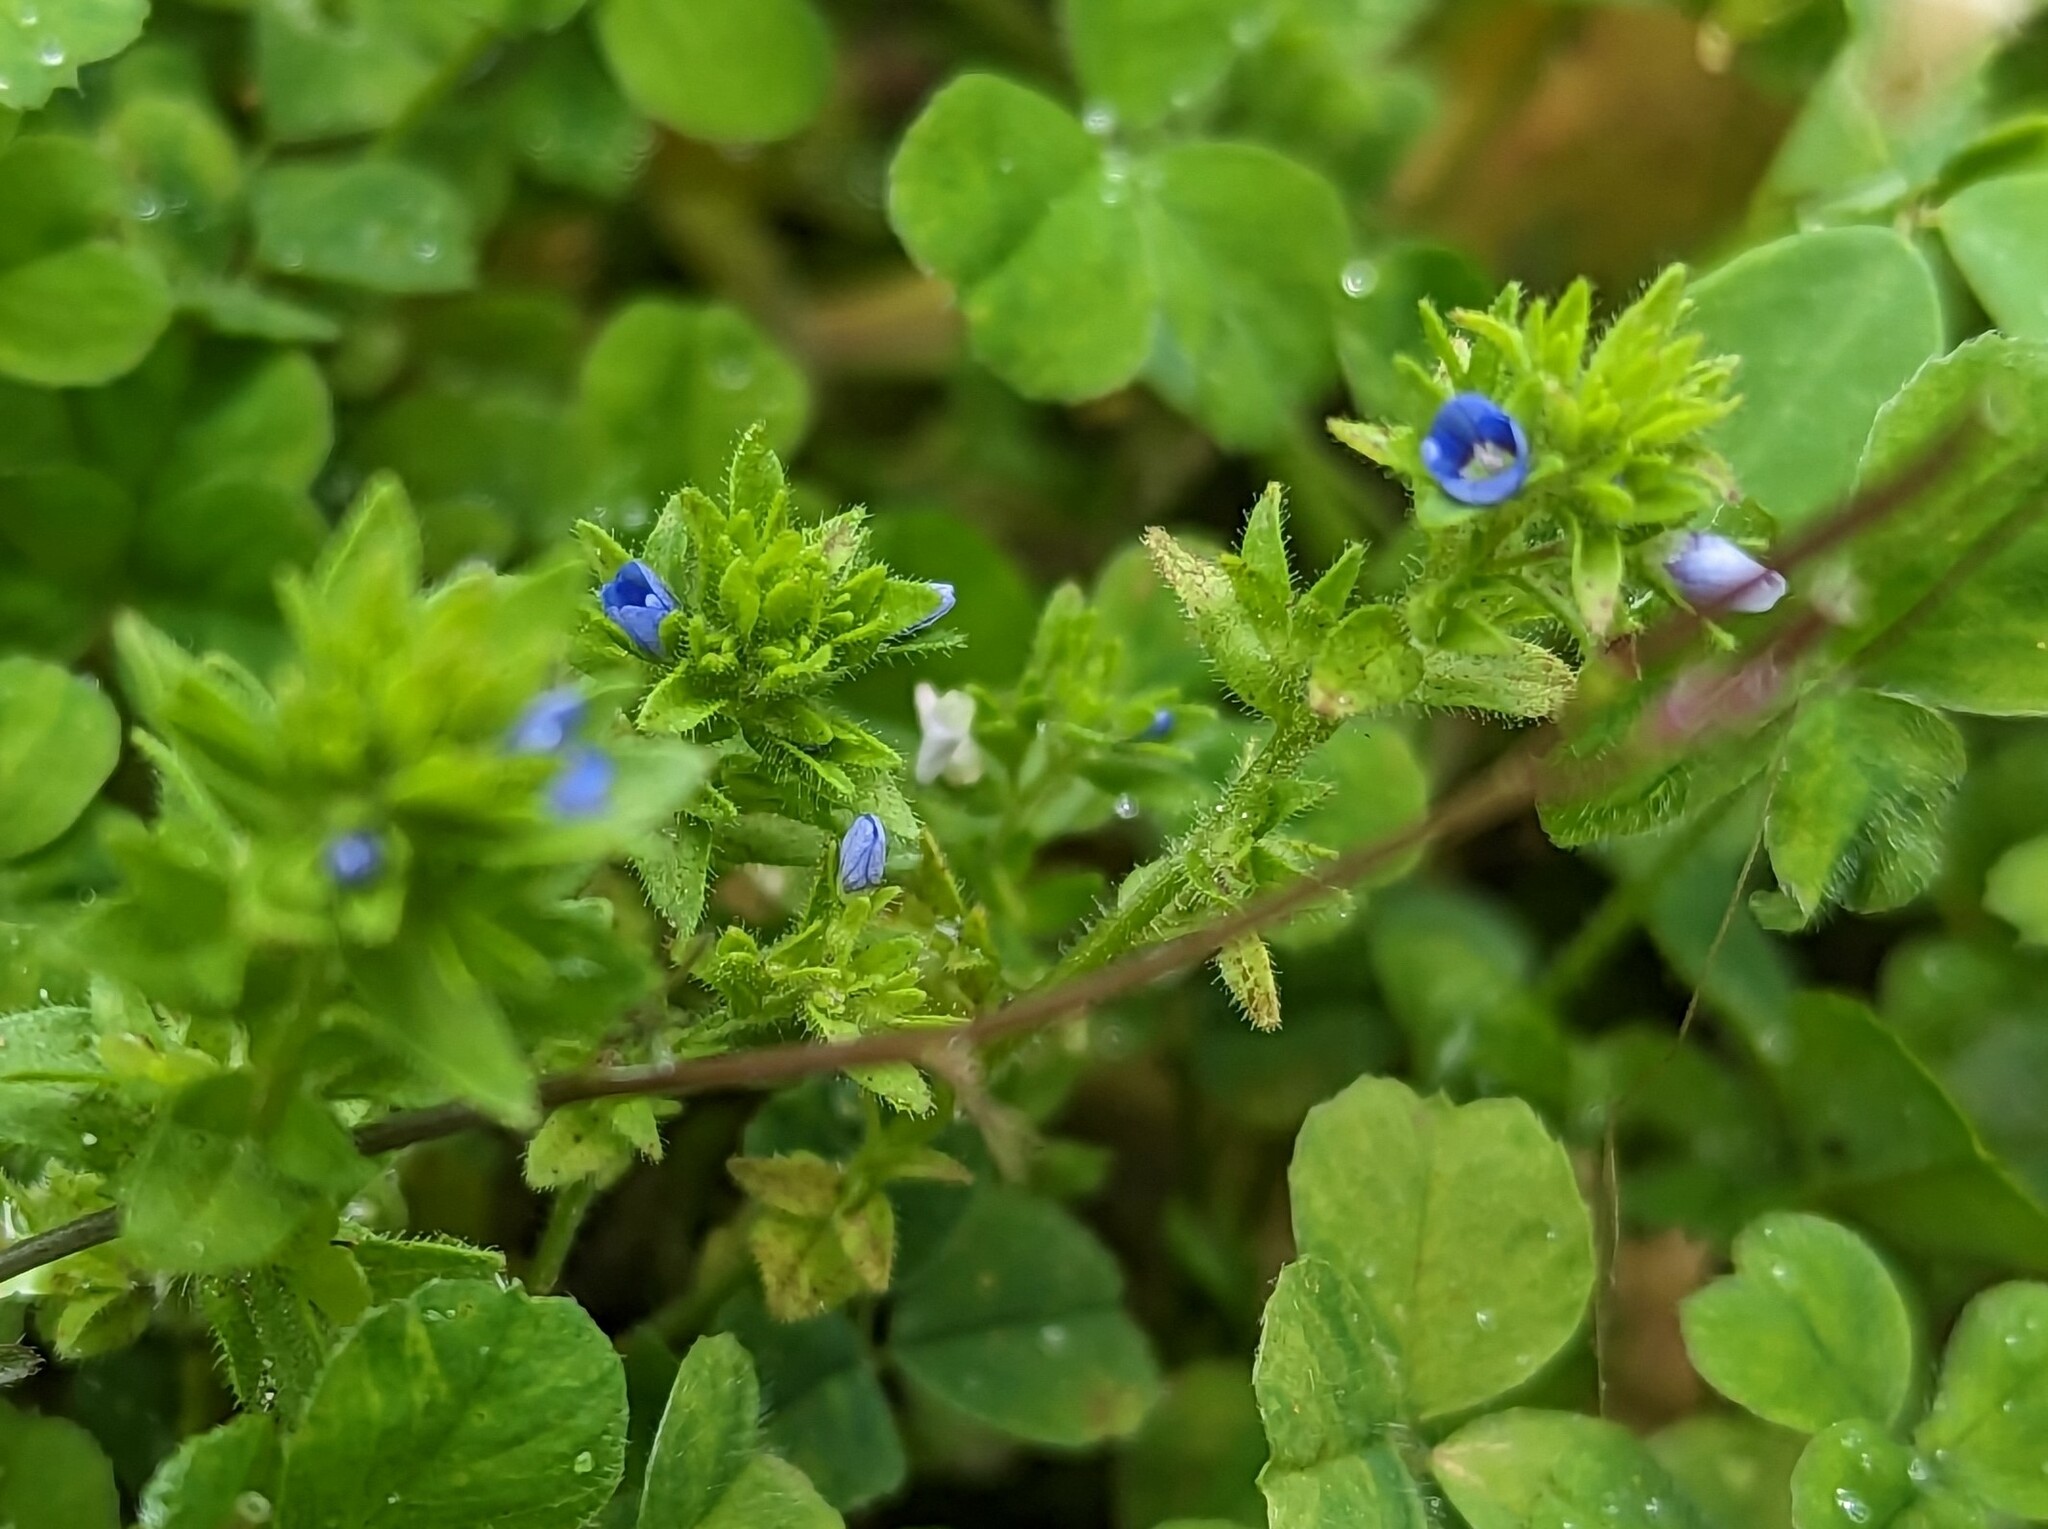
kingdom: Plantae
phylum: Tracheophyta
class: Magnoliopsida
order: Lamiales
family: Plantaginaceae
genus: Veronica
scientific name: Veronica arvensis
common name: Corn speedwell
